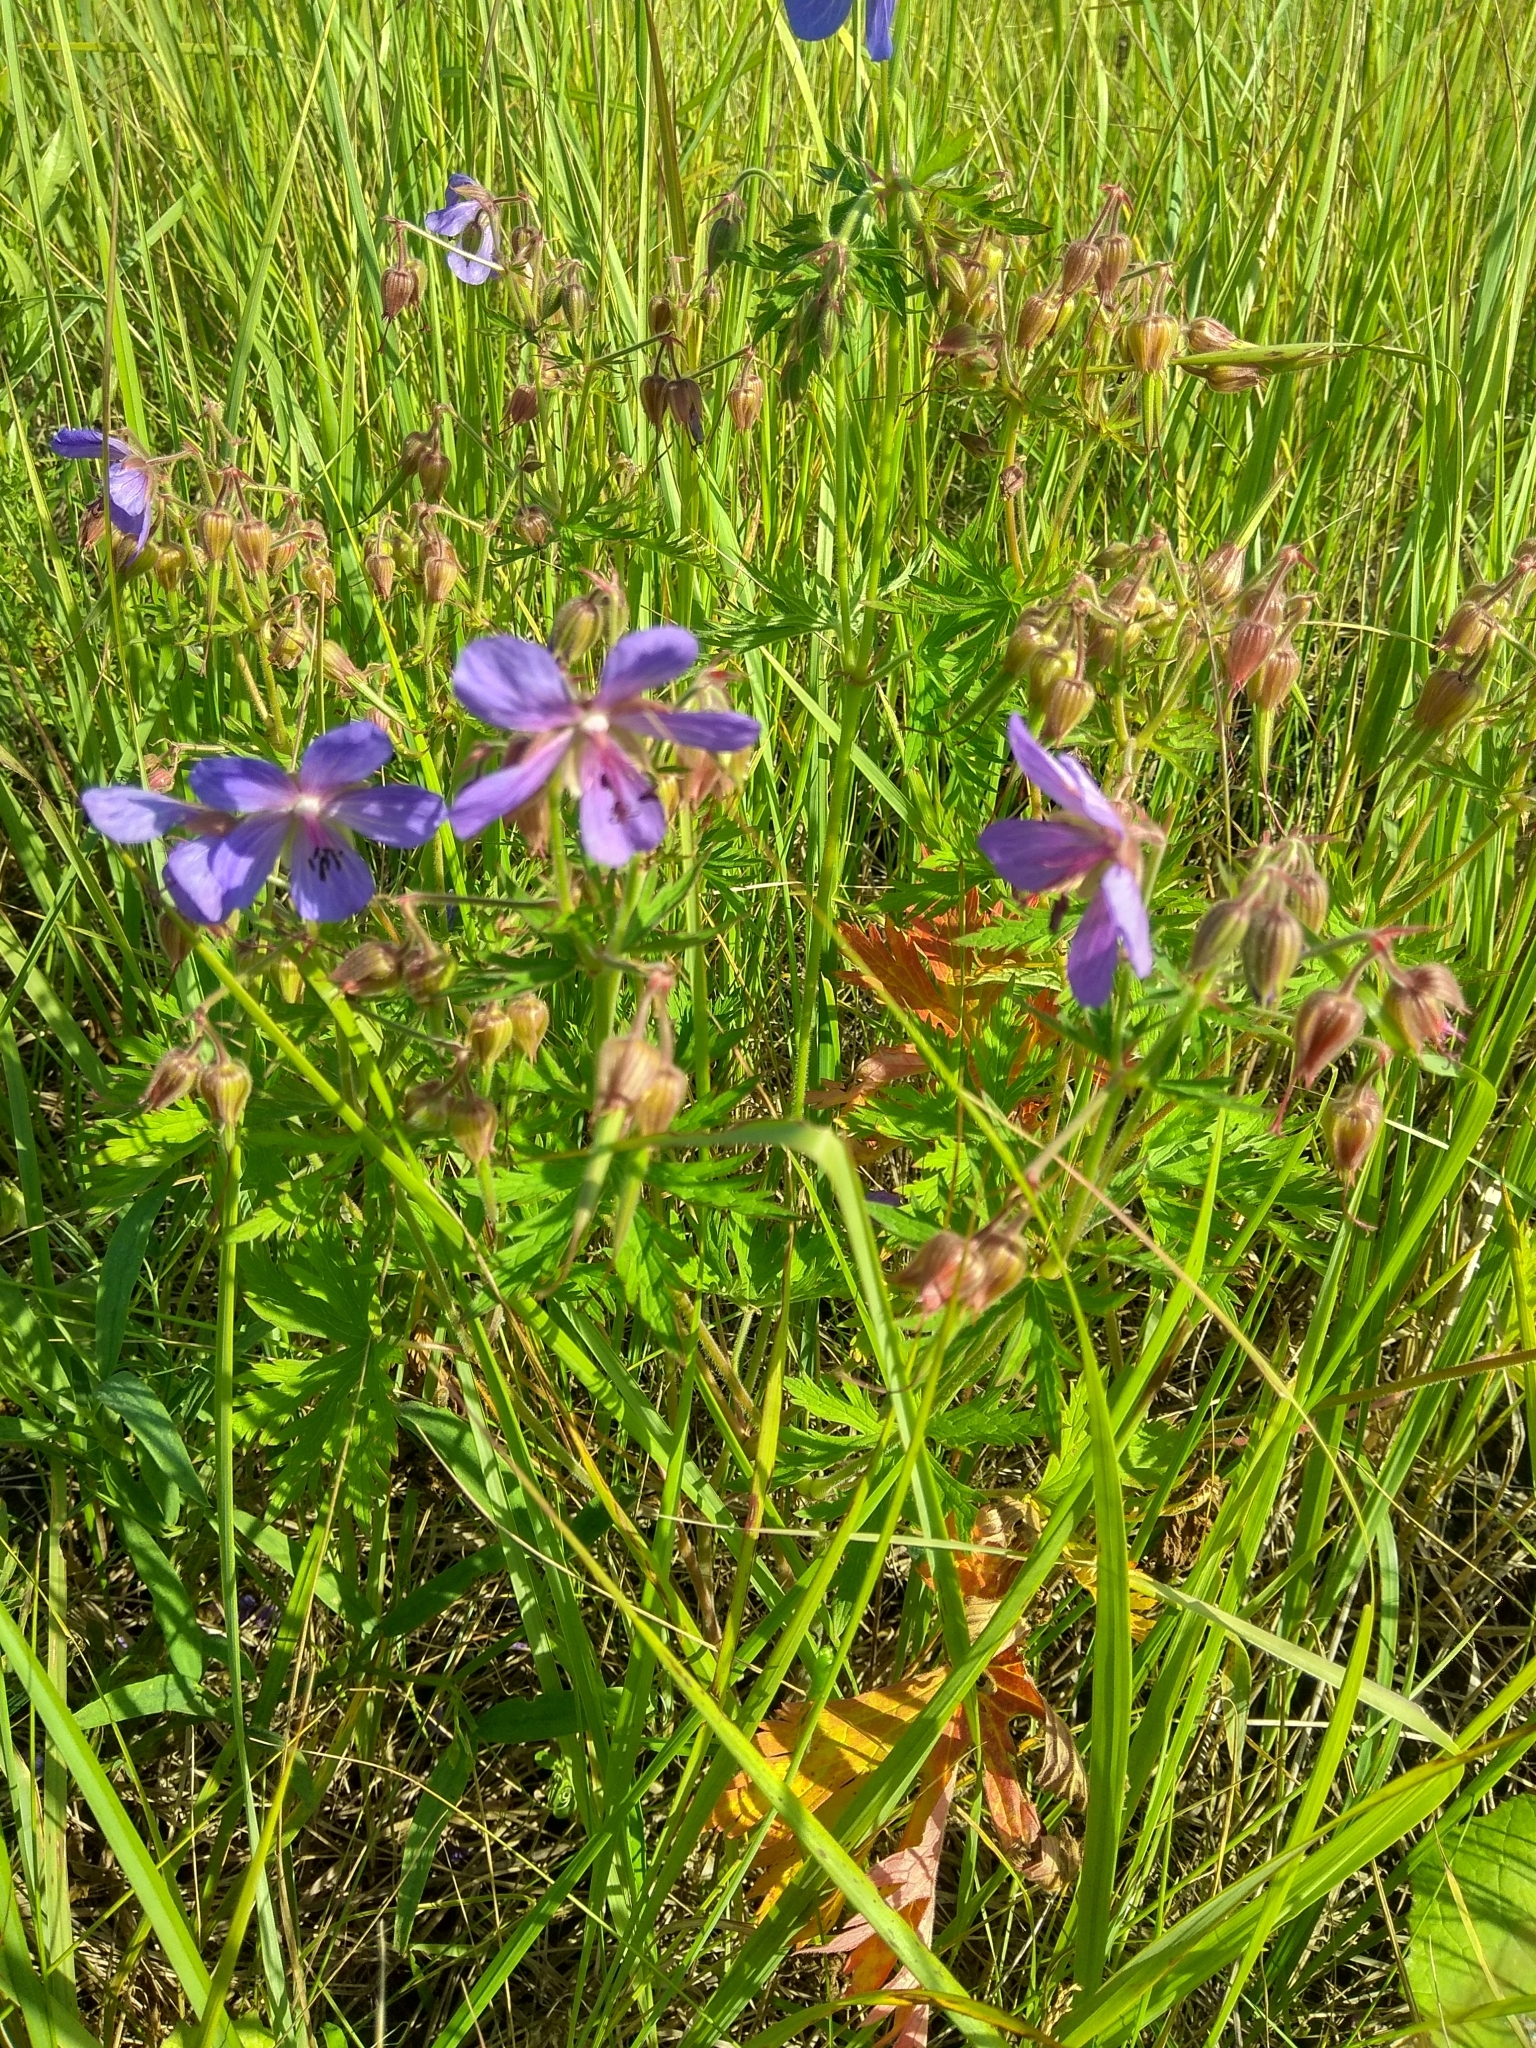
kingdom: Plantae
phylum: Tracheophyta
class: Magnoliopsida
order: Geraniales
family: Geraniaceae
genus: Geranium
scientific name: Geranium pratense
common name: Meadow crane's-bill
